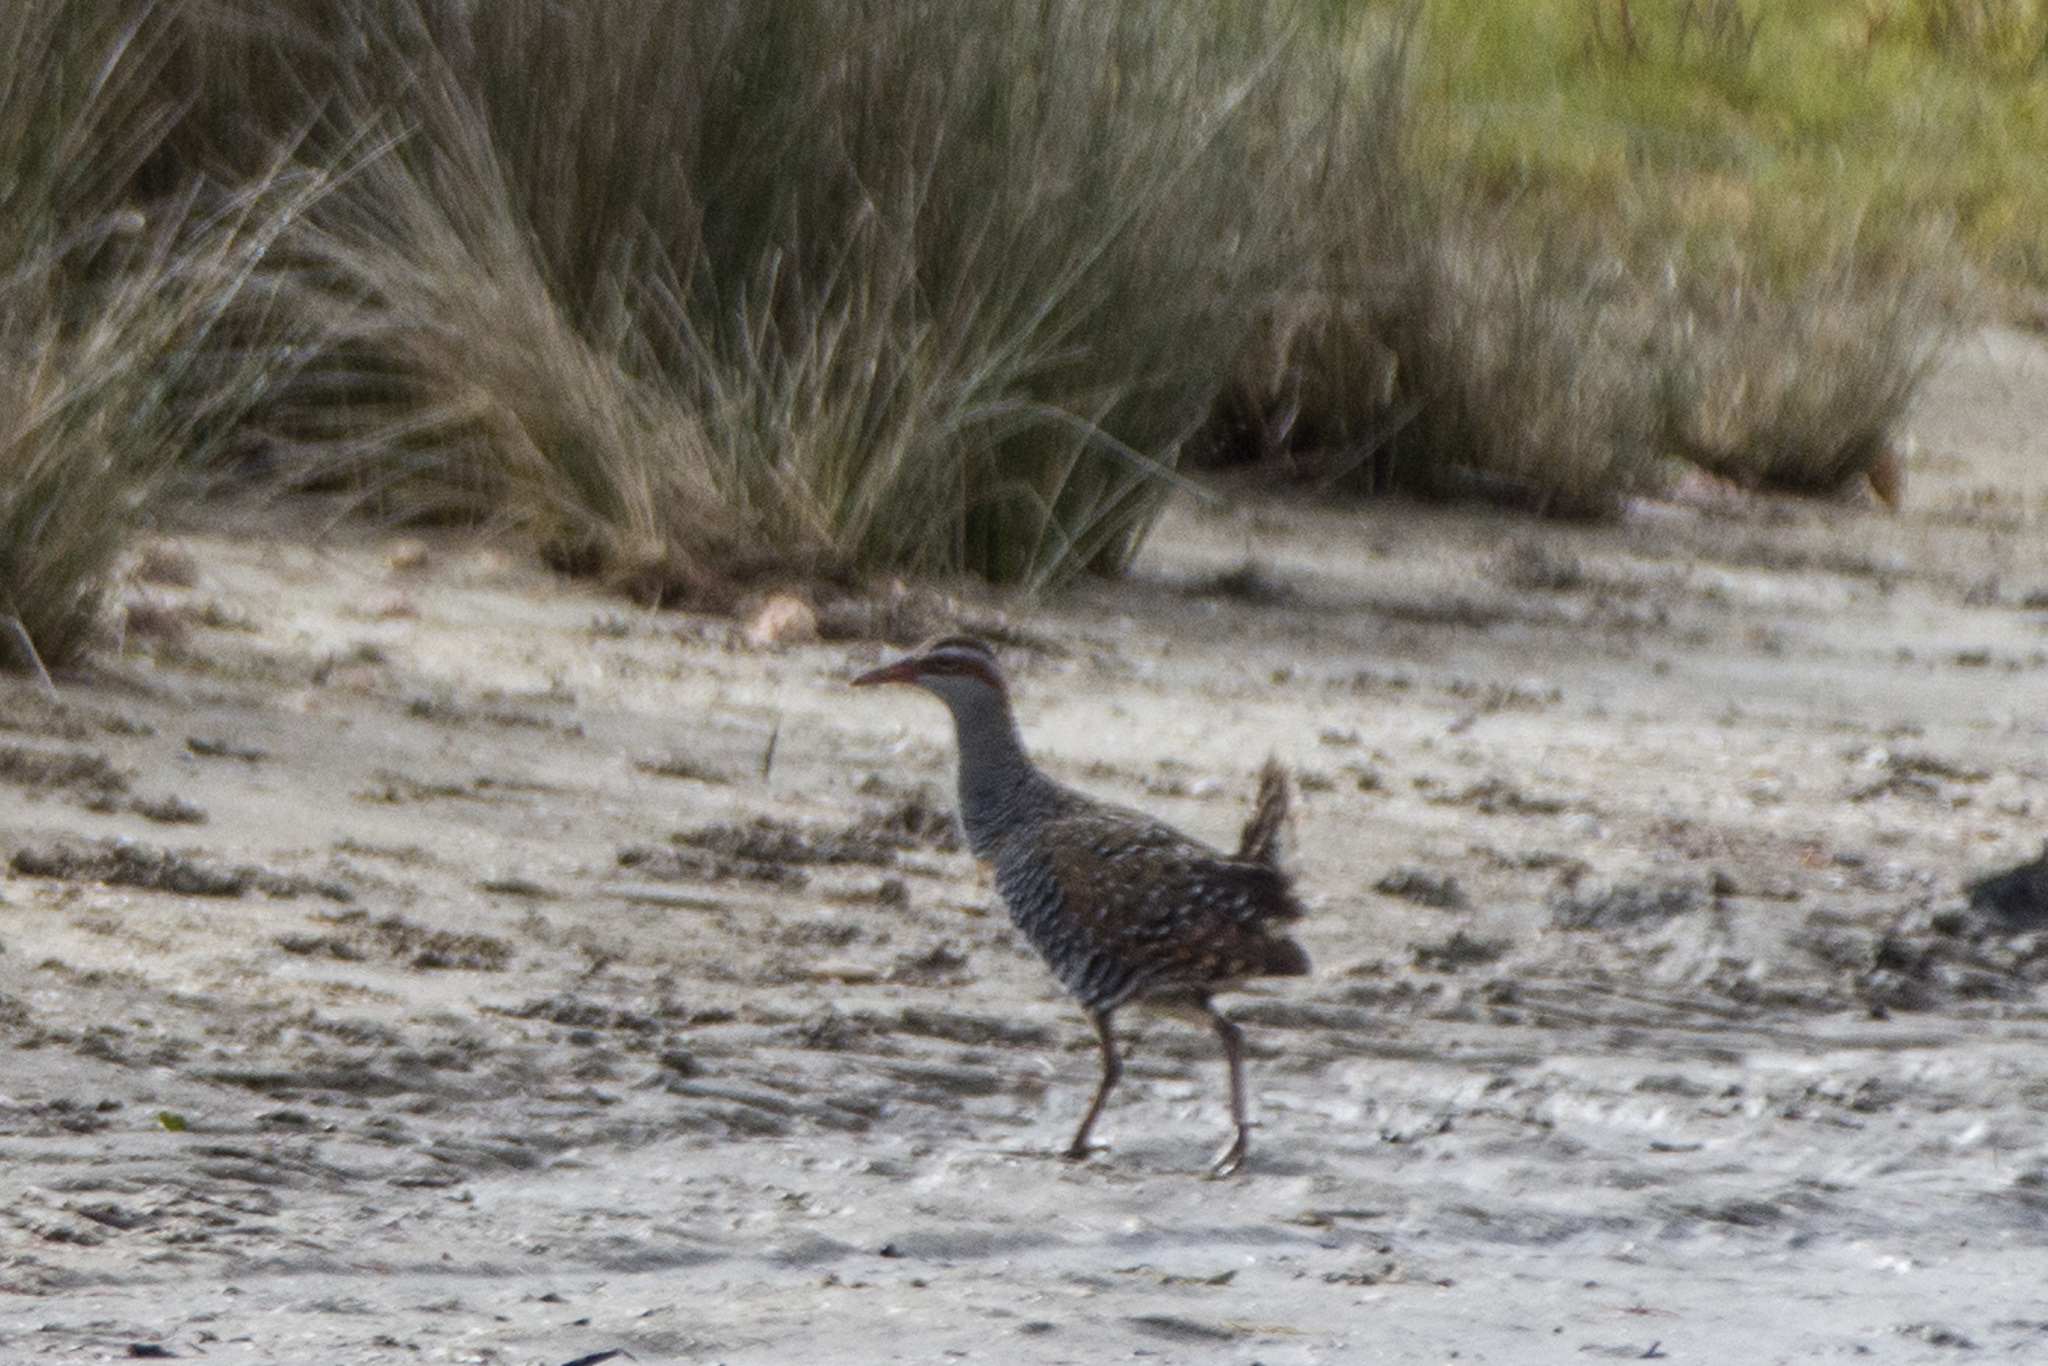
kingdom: Animalia
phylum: Chordata
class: Aves
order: Gruiformes
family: Rallidae
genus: Gallirallus
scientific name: Gallirallus philippensis
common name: Buff-banded rail
